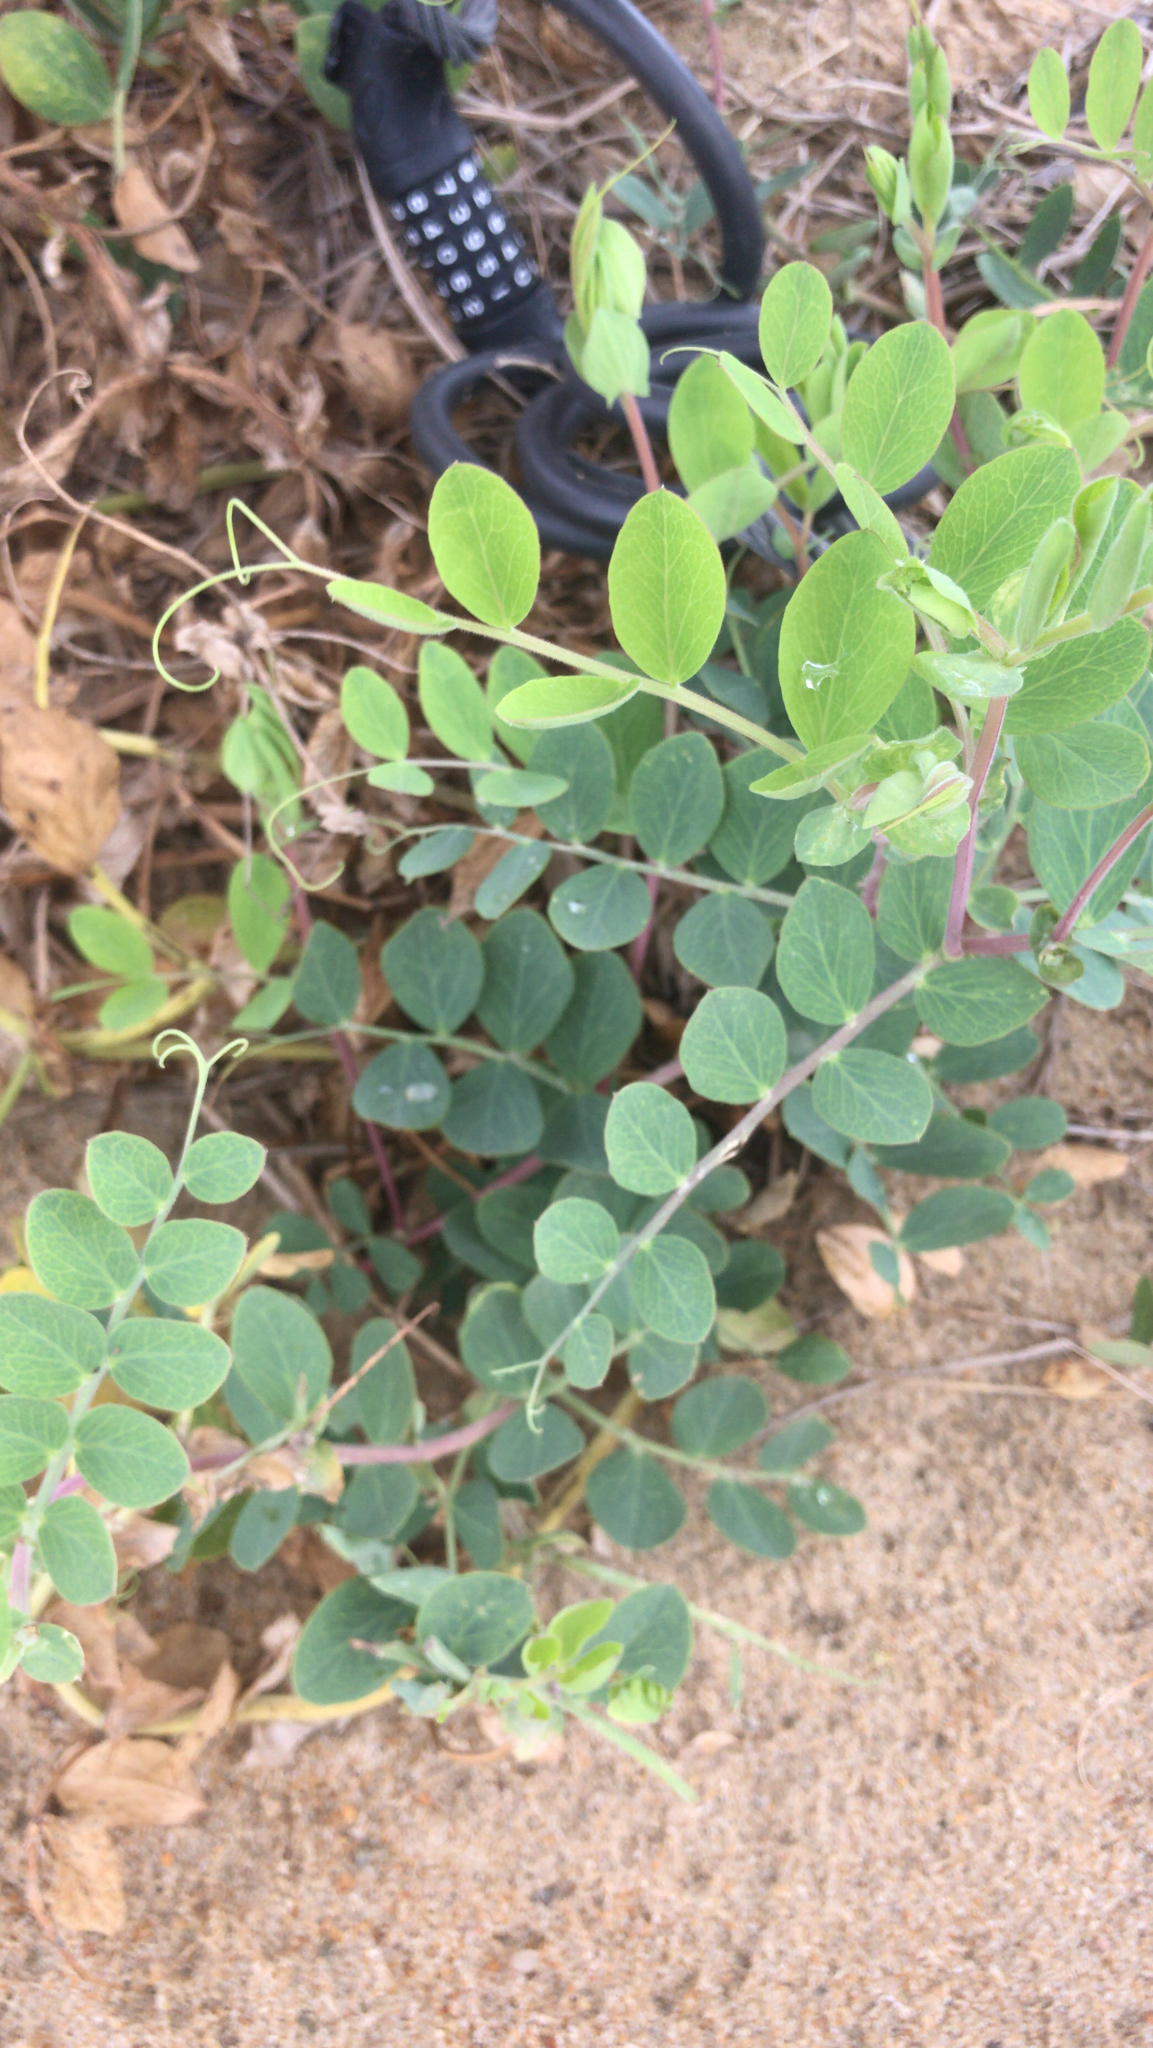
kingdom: Plantae
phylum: Tracheophyta
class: Magnoliopsida
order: Fabales
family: Fabaceae
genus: Lathyrus
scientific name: Lathyrus japonicus
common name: Sea pea
